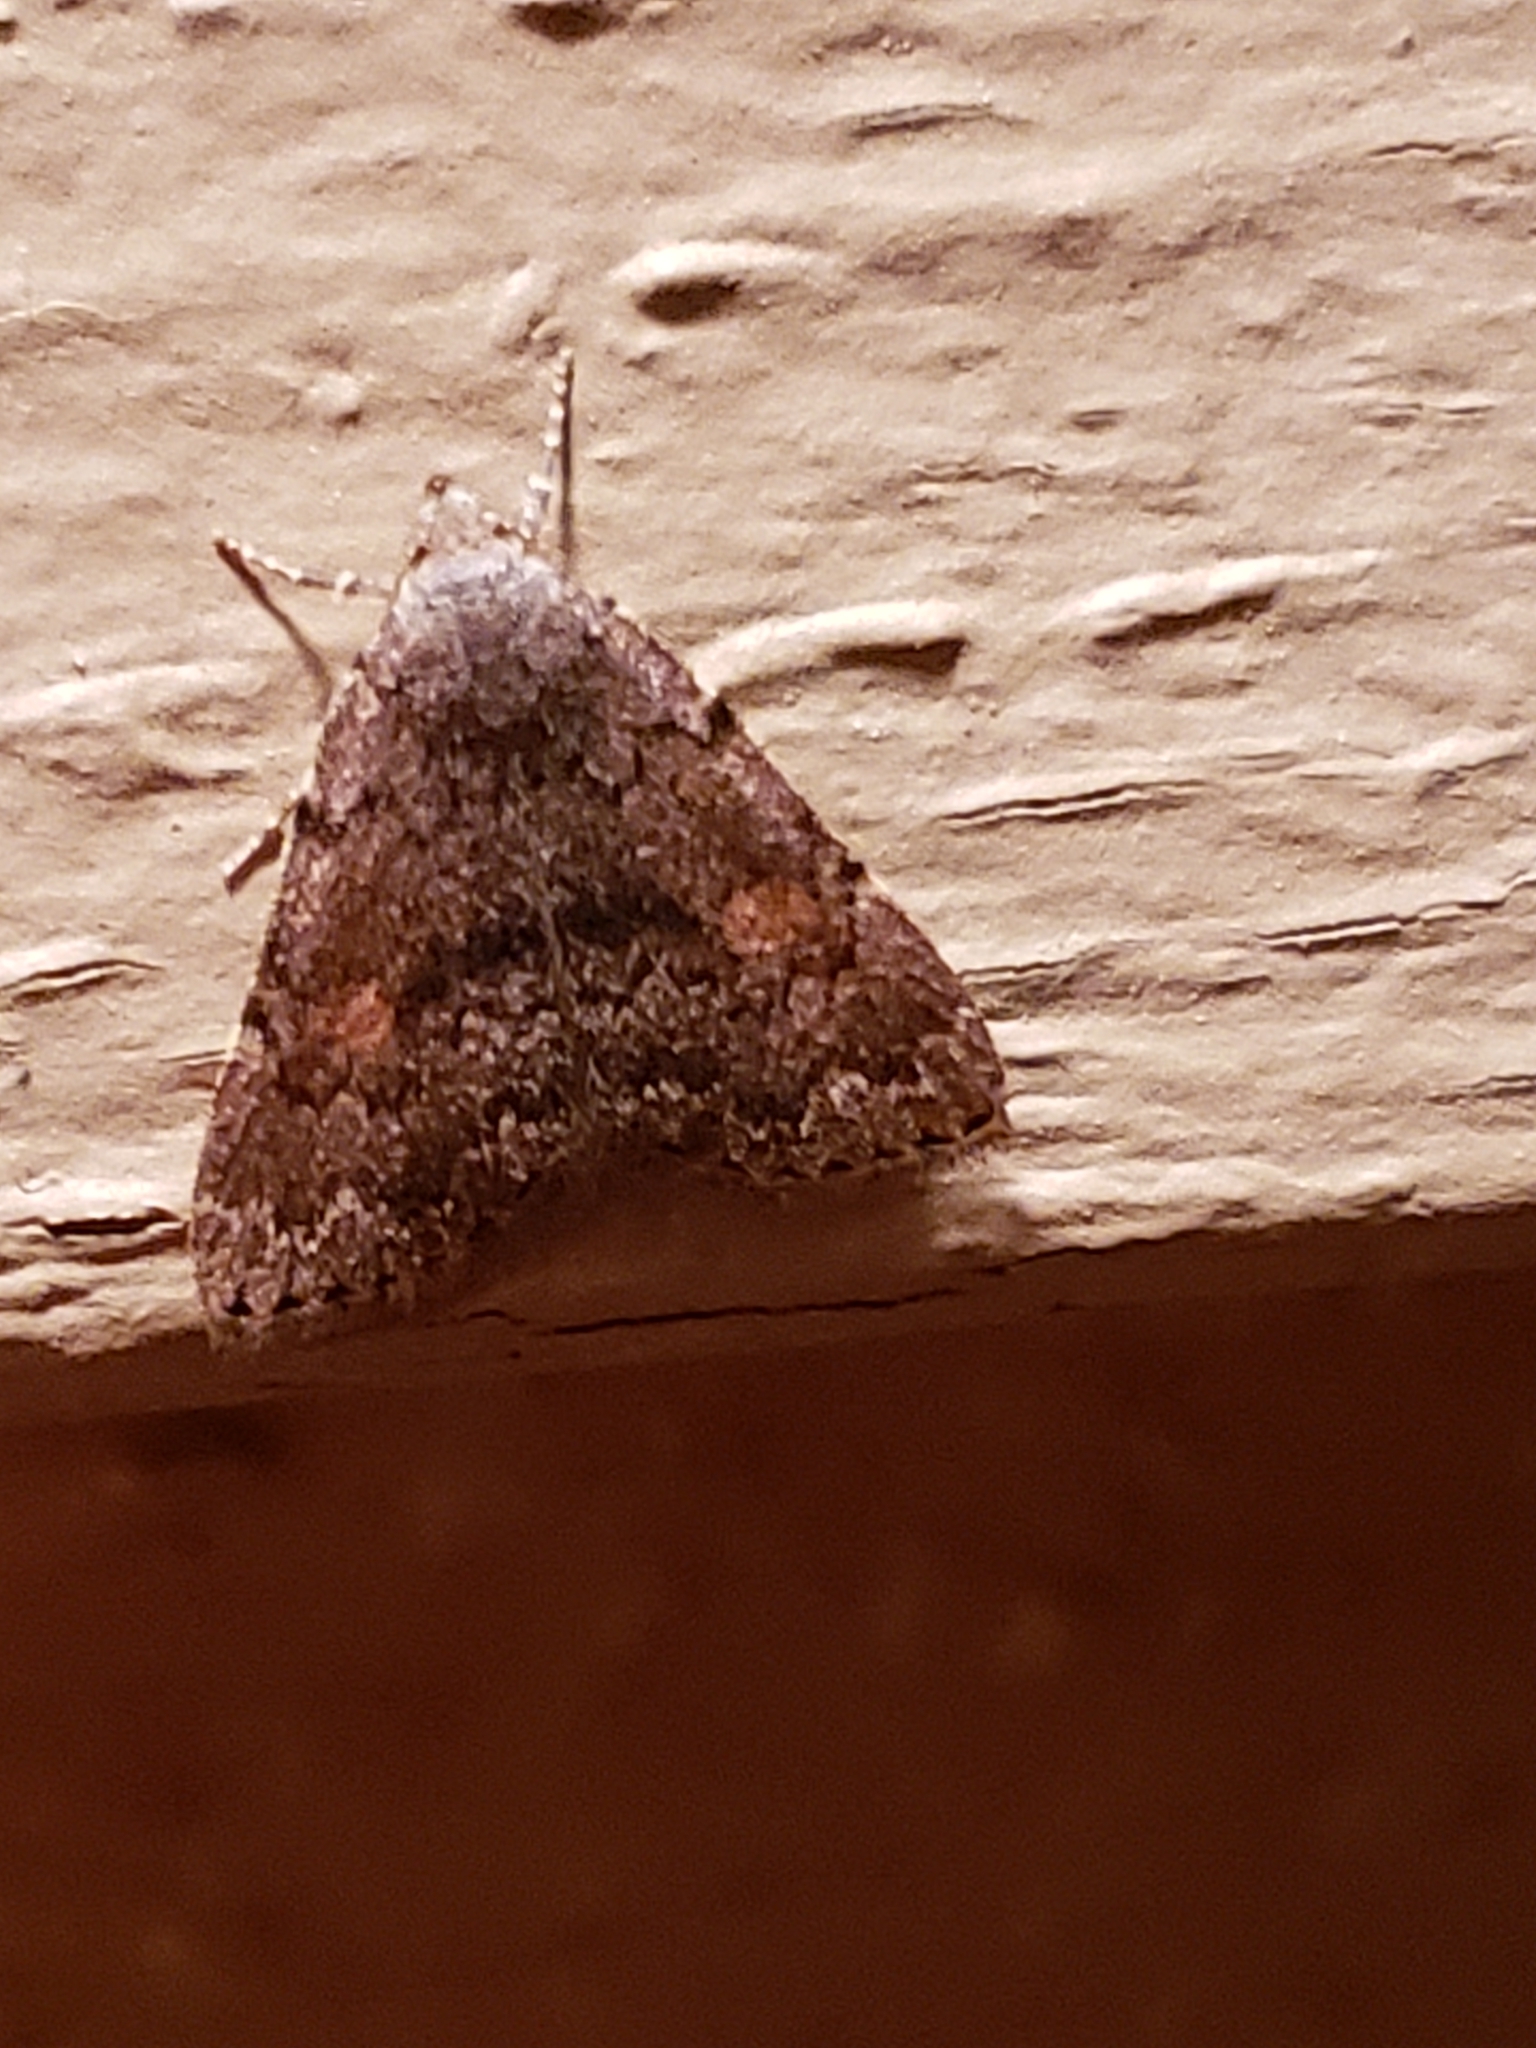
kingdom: Animalia
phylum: Arthropoda
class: Insecta
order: Lepidoptera
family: Erebidae
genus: Idia
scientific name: Idia aemula
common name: Common idia moth
